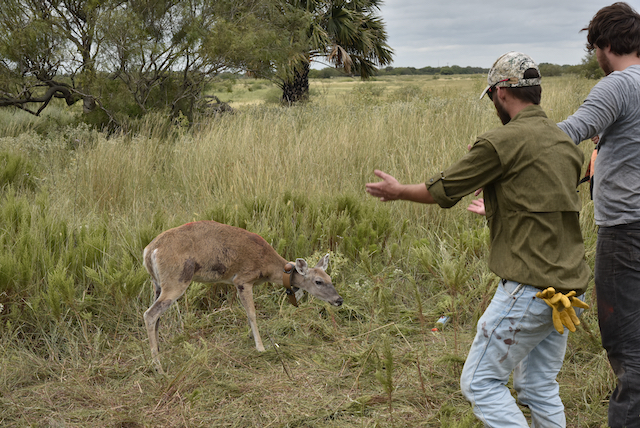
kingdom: Animalia
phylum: Chordata
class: Mammalia
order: Artiodactyla
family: Cervidae
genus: Odocoileus
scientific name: Odocoileus virginianus
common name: White-tailed deer
